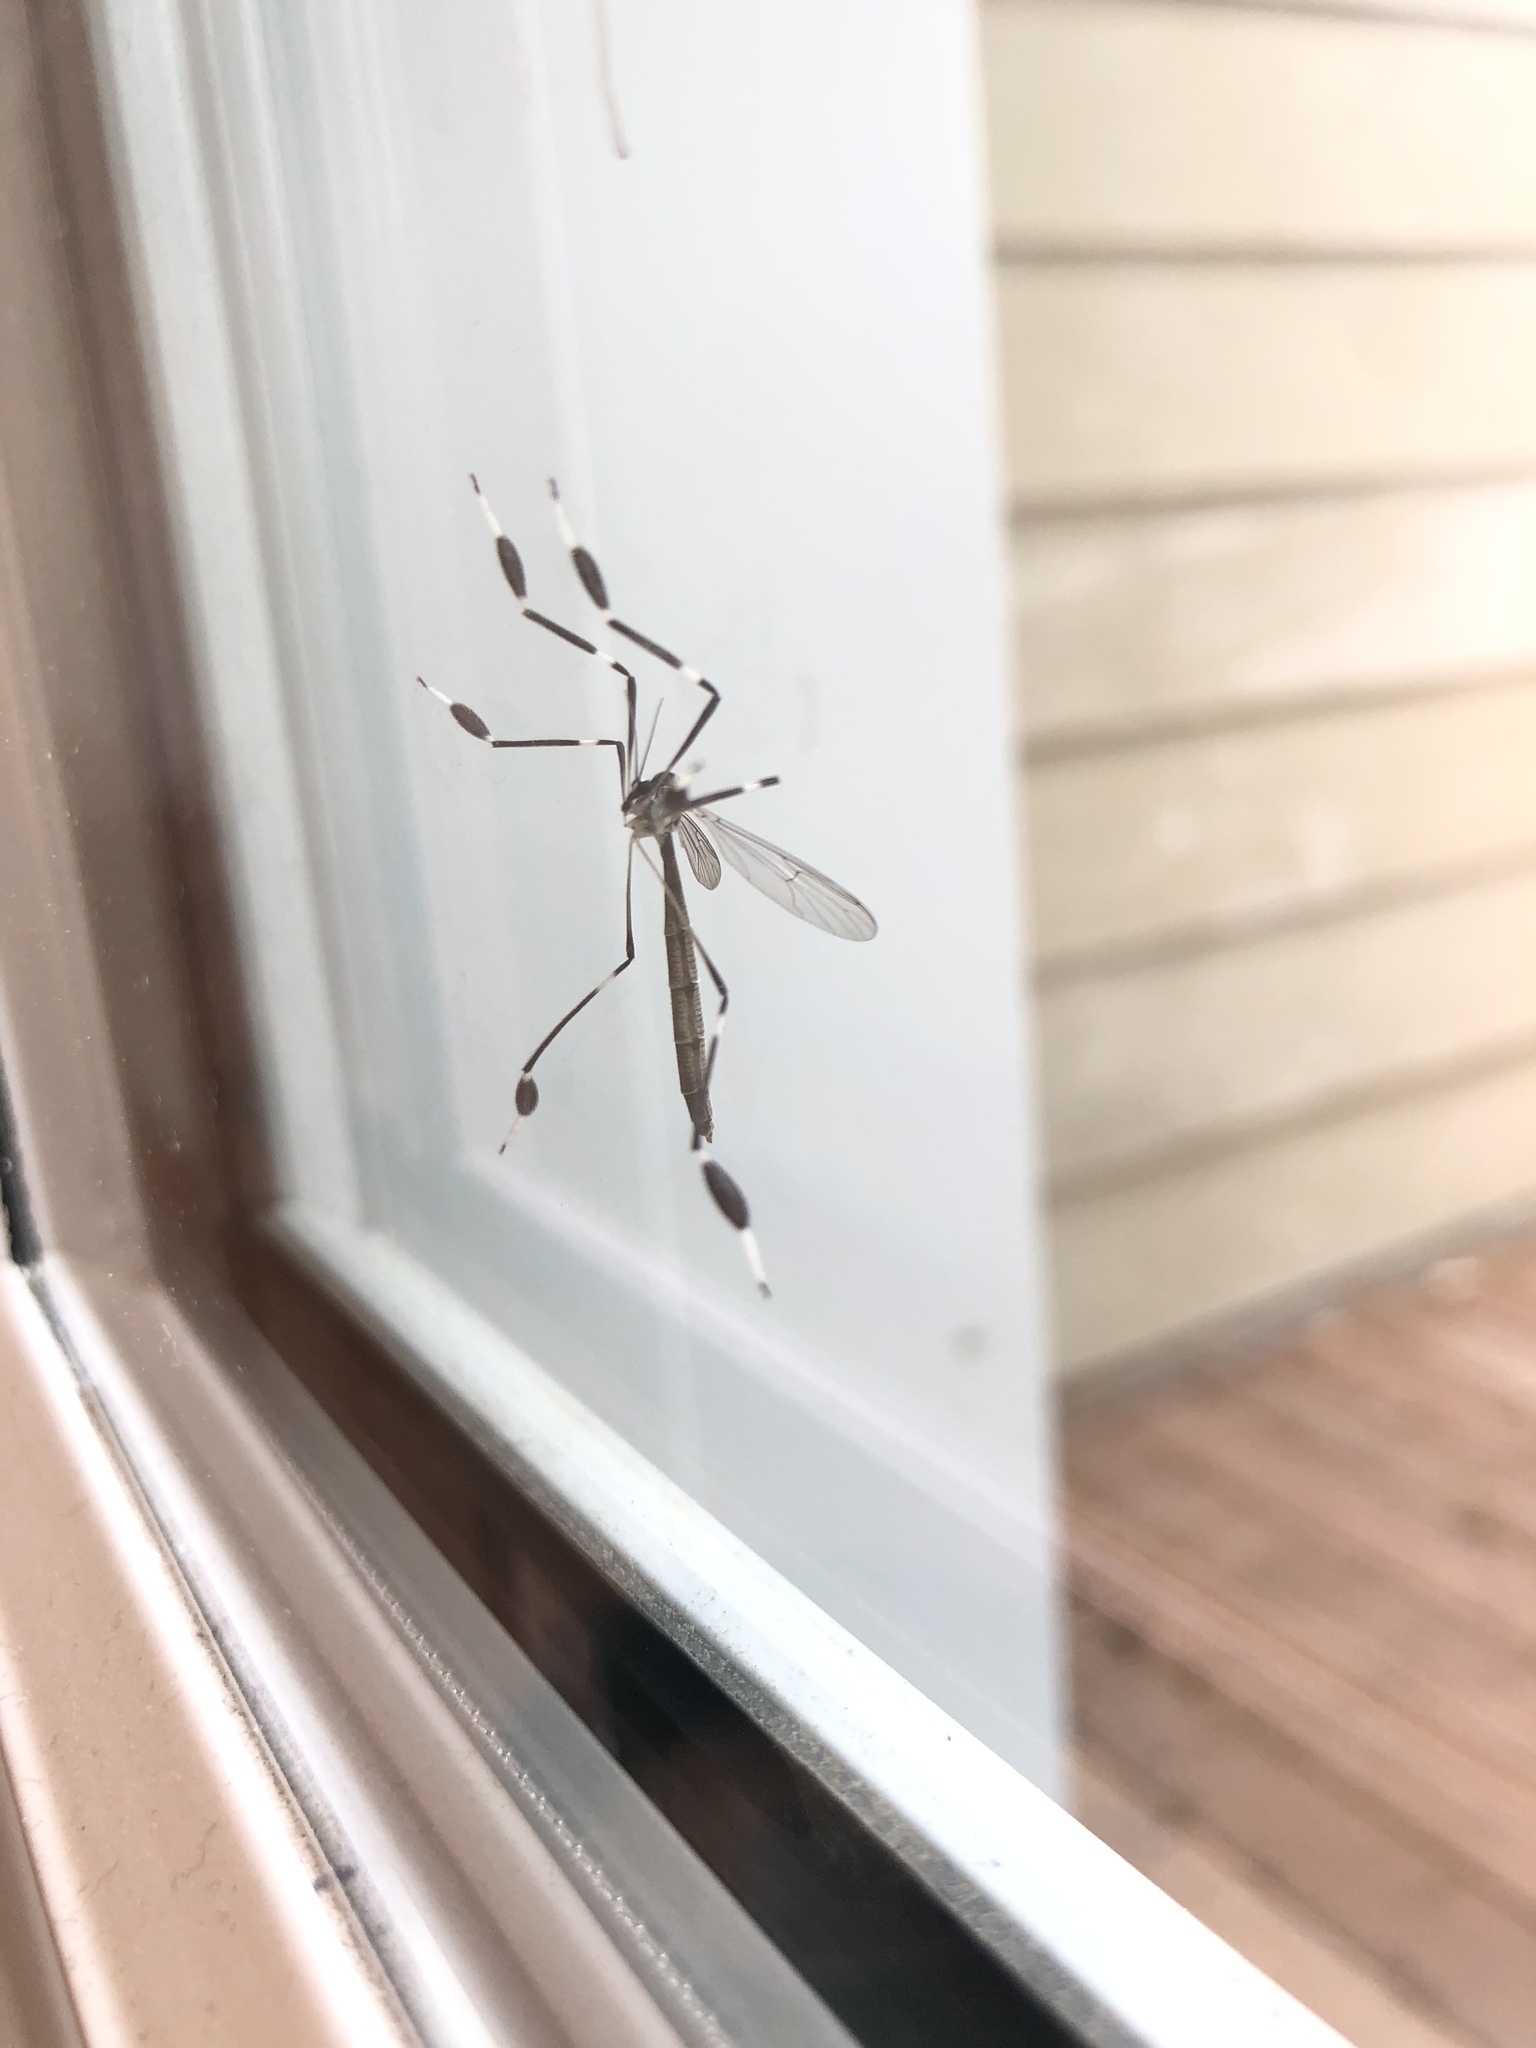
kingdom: Animalia
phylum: Arthropoda
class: Insecta
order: Diptera
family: Ptychopteridae
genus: Bittacomorpha
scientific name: Bittacomorpha clavipes
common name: Eastern phantom crane fly
